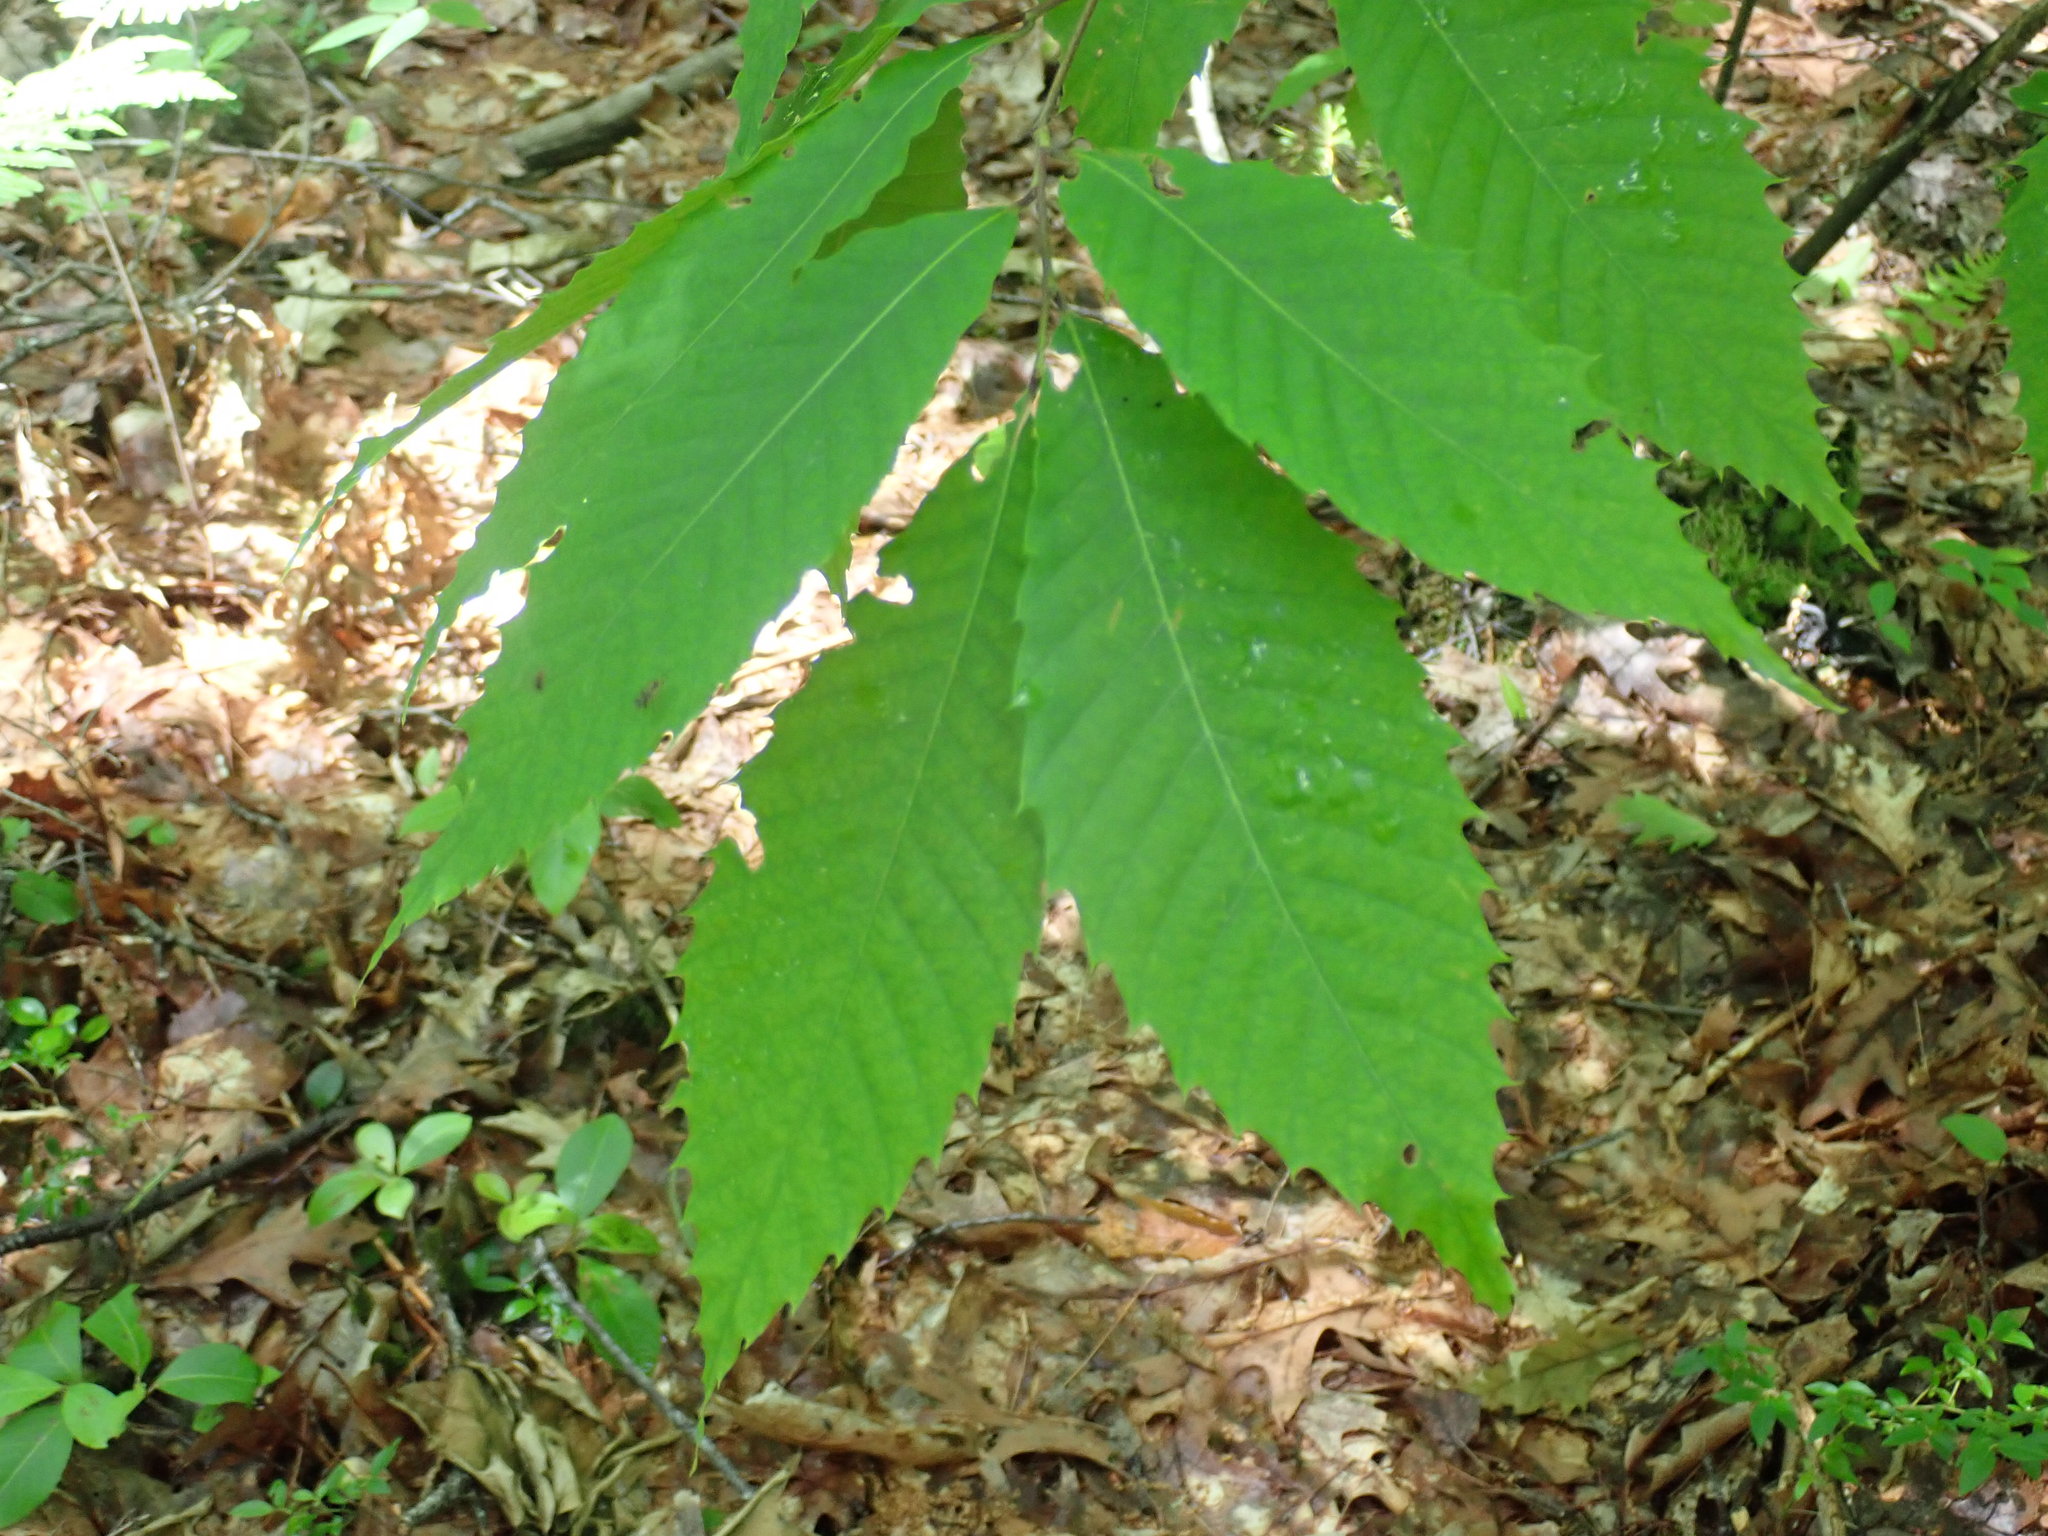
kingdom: Plantae
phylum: Tracheophyta
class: Magnoliopsida
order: Fagales
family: Fagaceae
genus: Castanea
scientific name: Castanea dentata
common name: American chestnut
